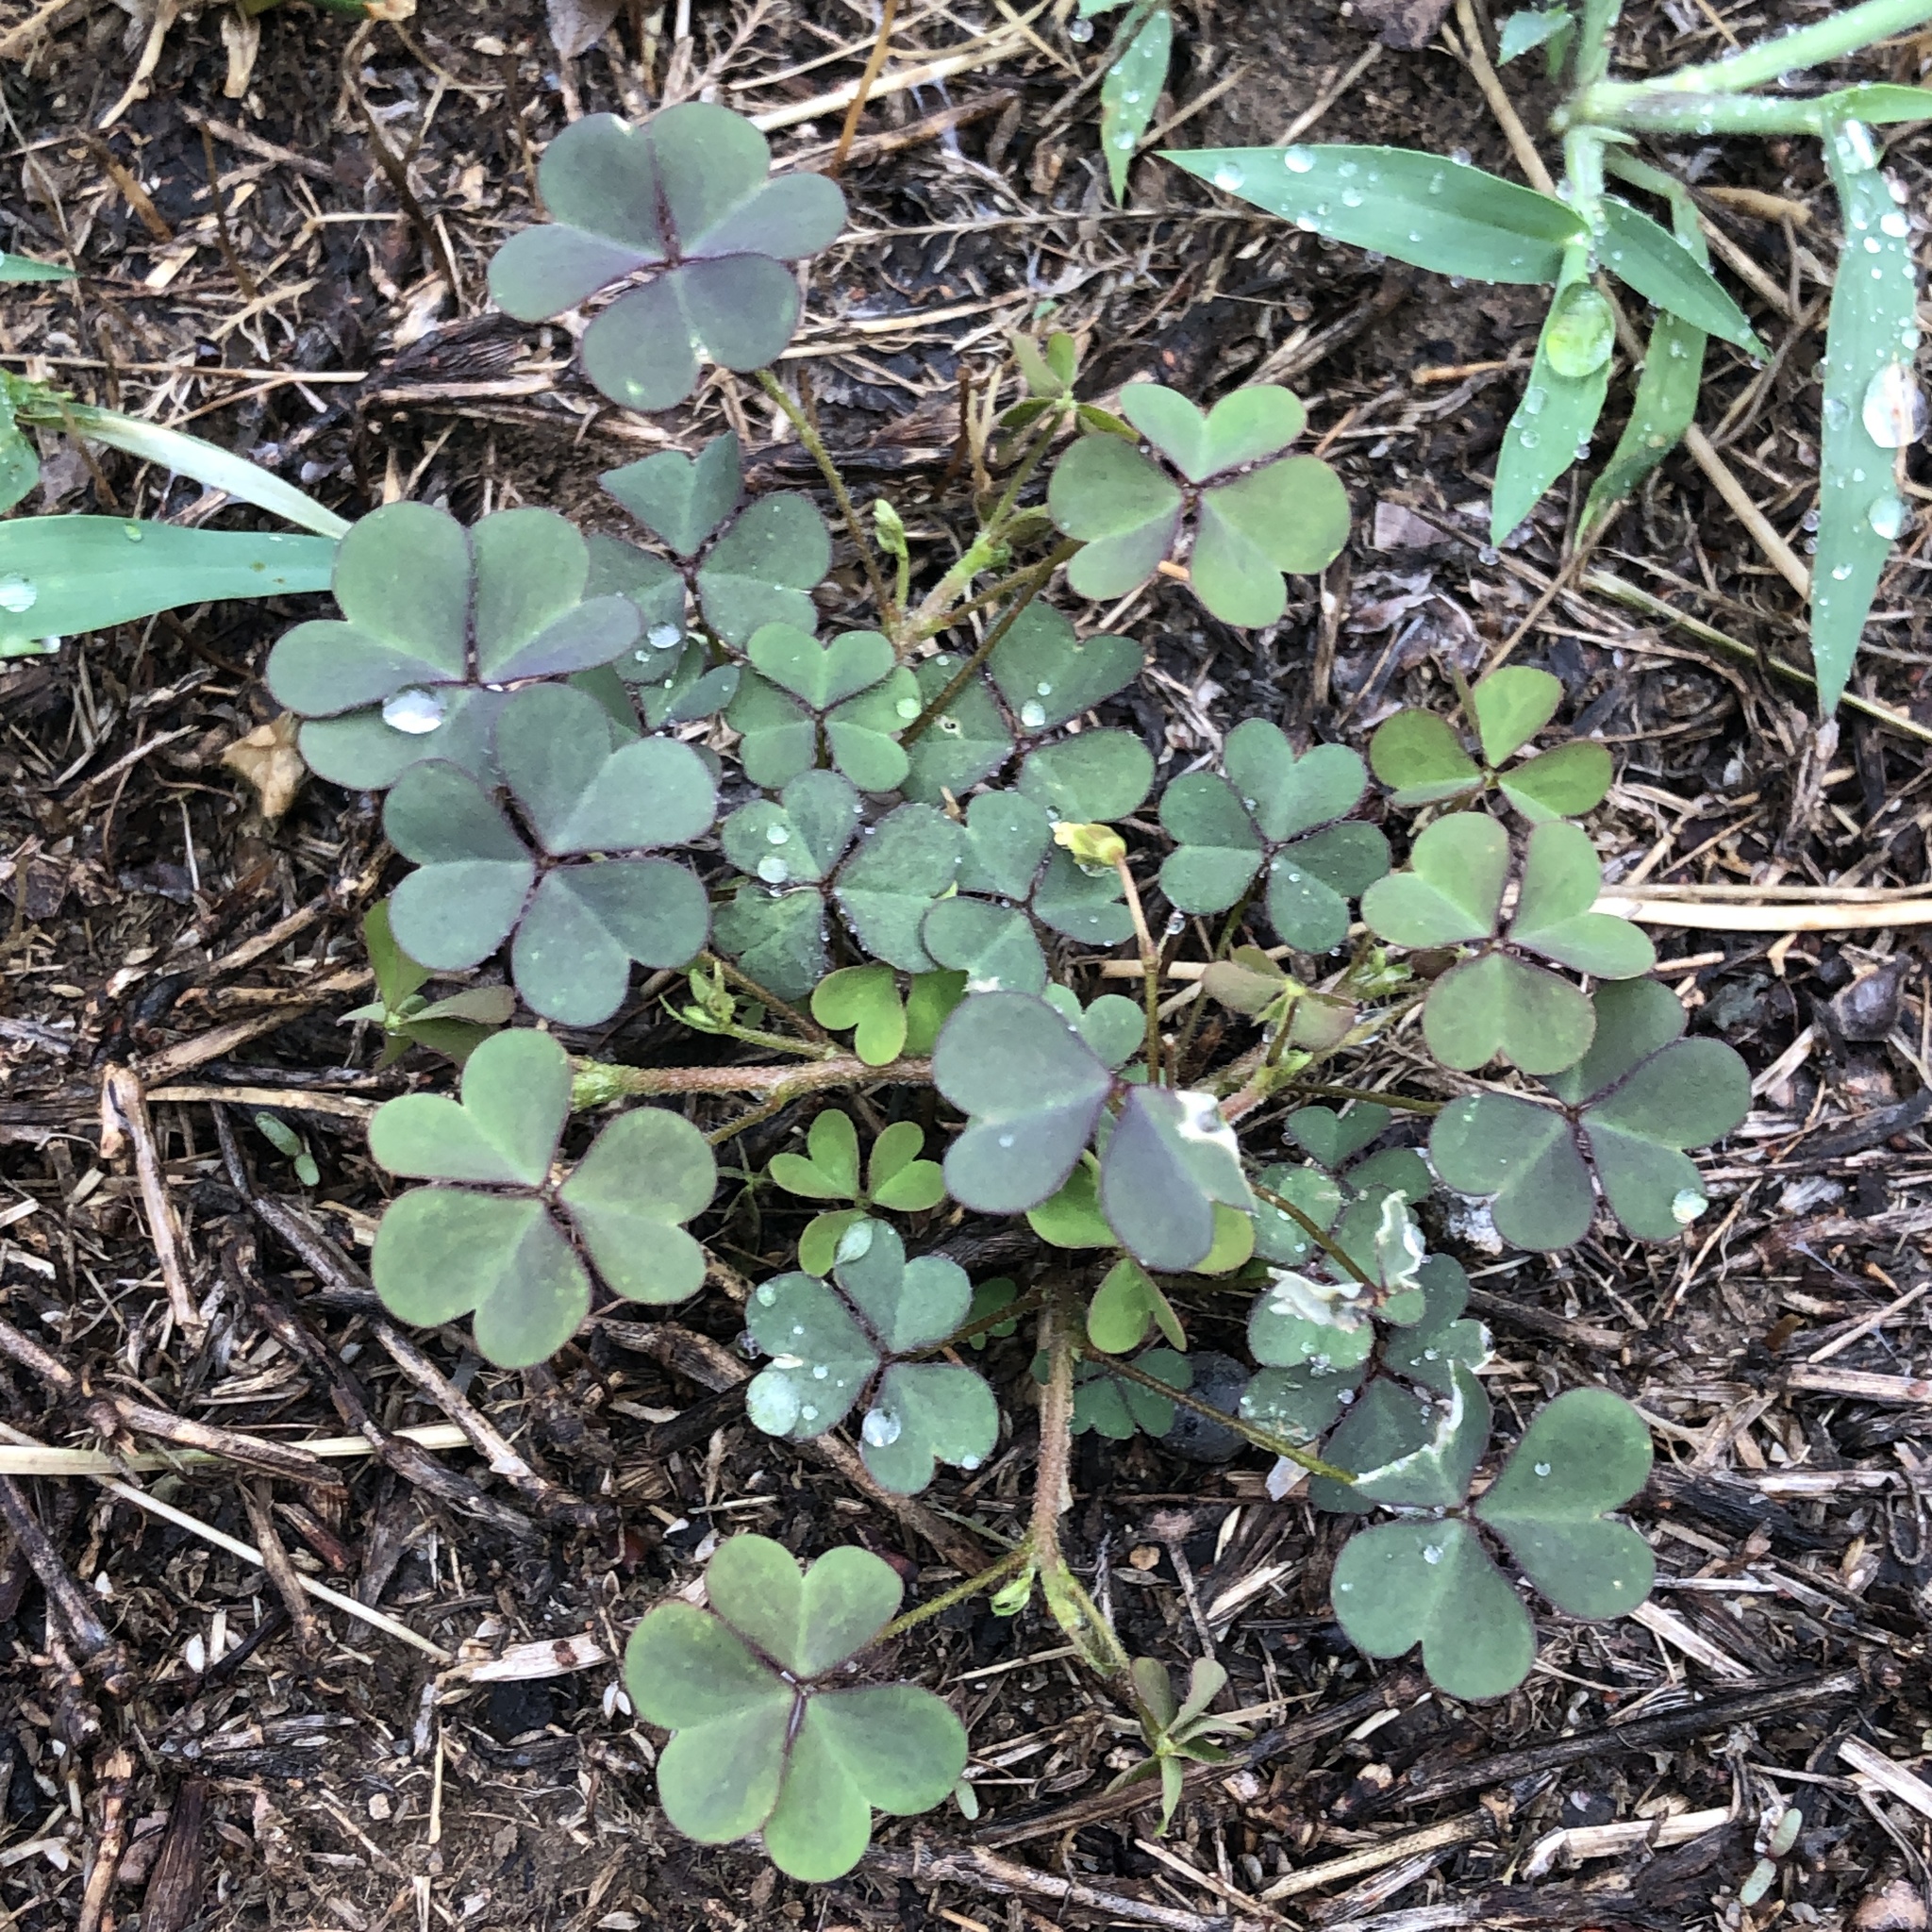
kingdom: Plantae
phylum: Tracheophyta
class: Magnoliopsida
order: Oxalidales
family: Oxalidaceae
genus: Oxalis
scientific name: Oxalis corniculata
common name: Procumbent yellow-sorrel
